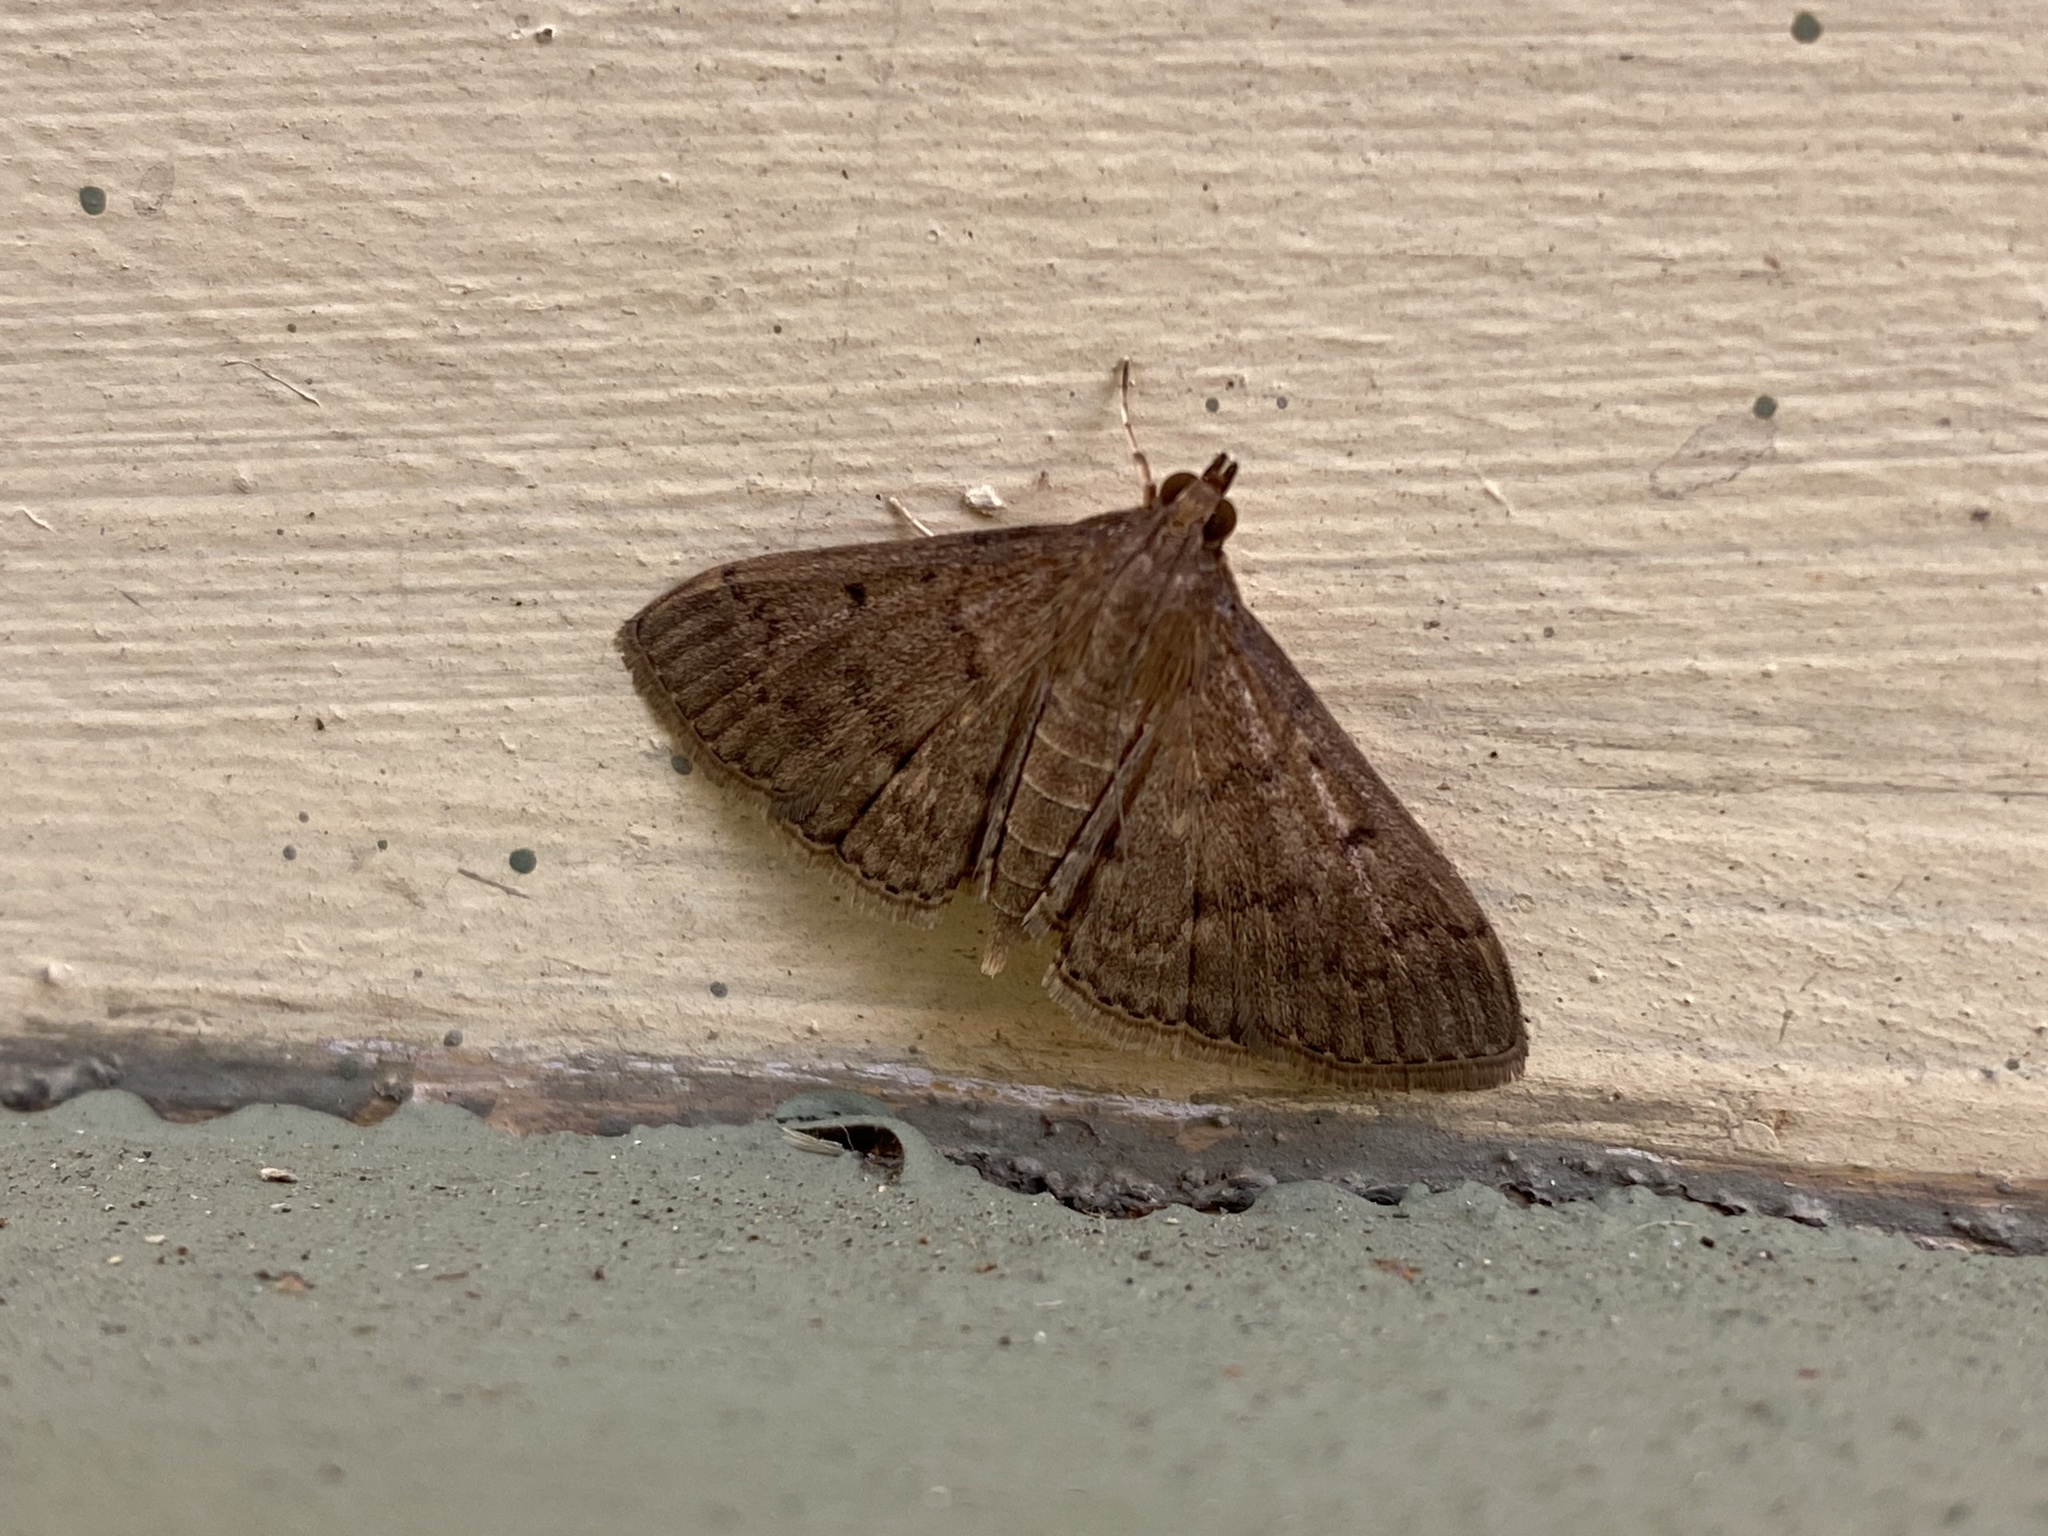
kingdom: Animalia
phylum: Arthropoda
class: Insecta
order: Lepidoptera
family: Crambidae
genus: Herpetogramma
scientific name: Herpetogramma licarsisalis
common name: Grass webworm
